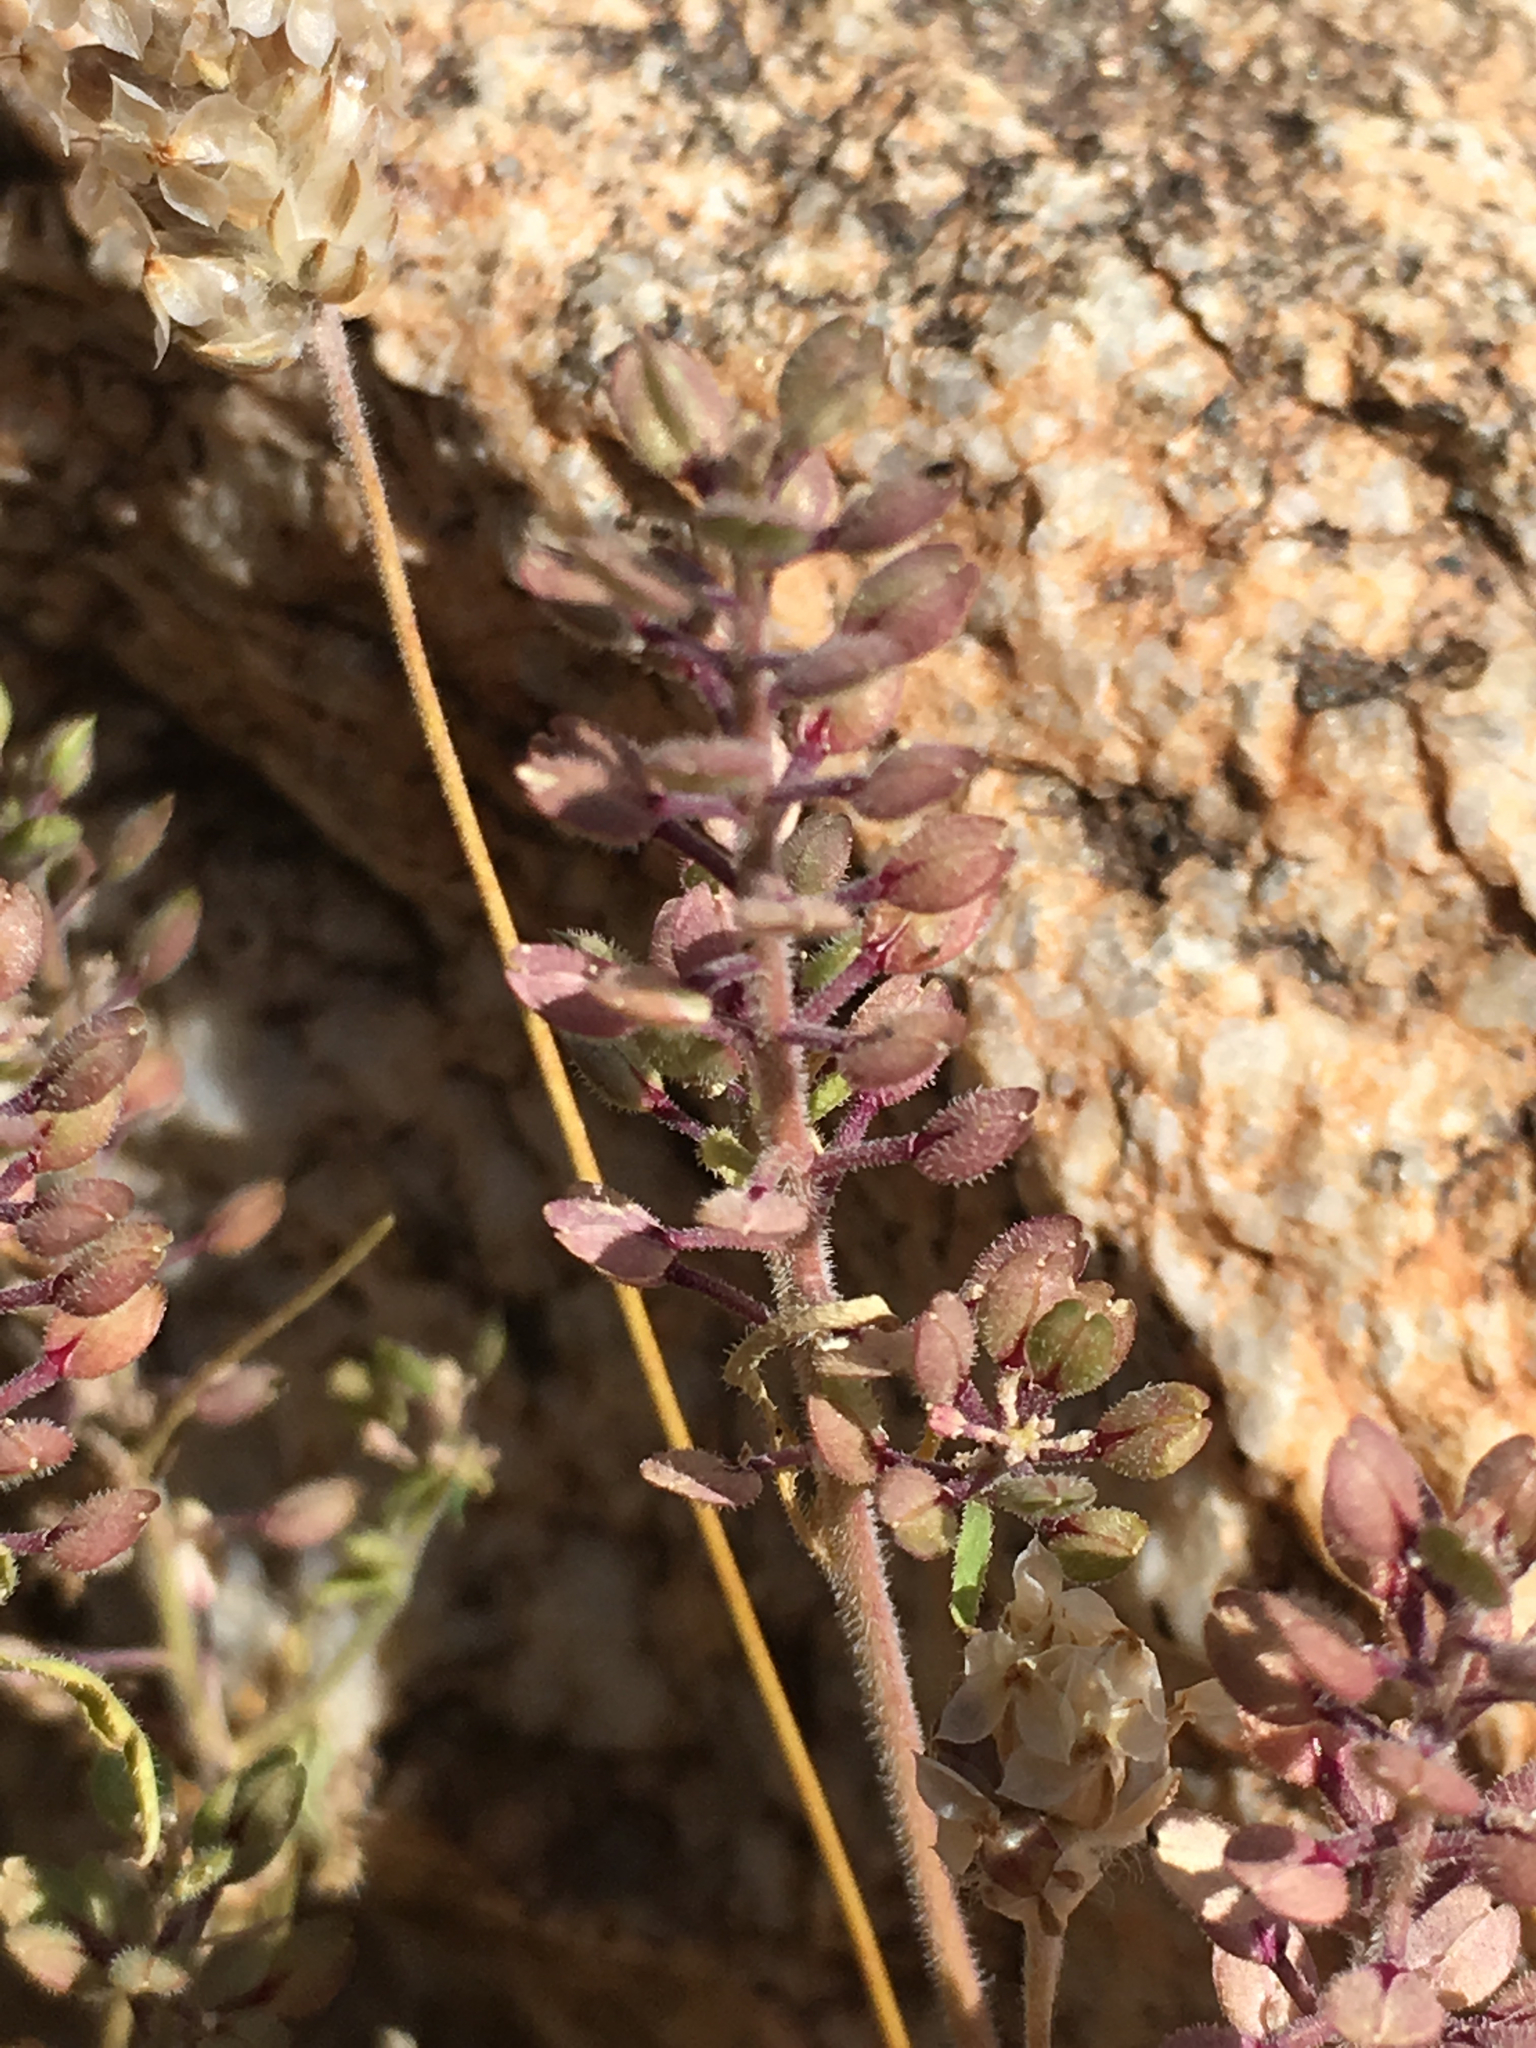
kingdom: Plantae
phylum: Tracheophyta
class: Magnoliopsida
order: Brassicales
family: Brassicaceae
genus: Lepidium
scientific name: Lepidium lasiocarpum
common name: Hairy-pod pepperwort
